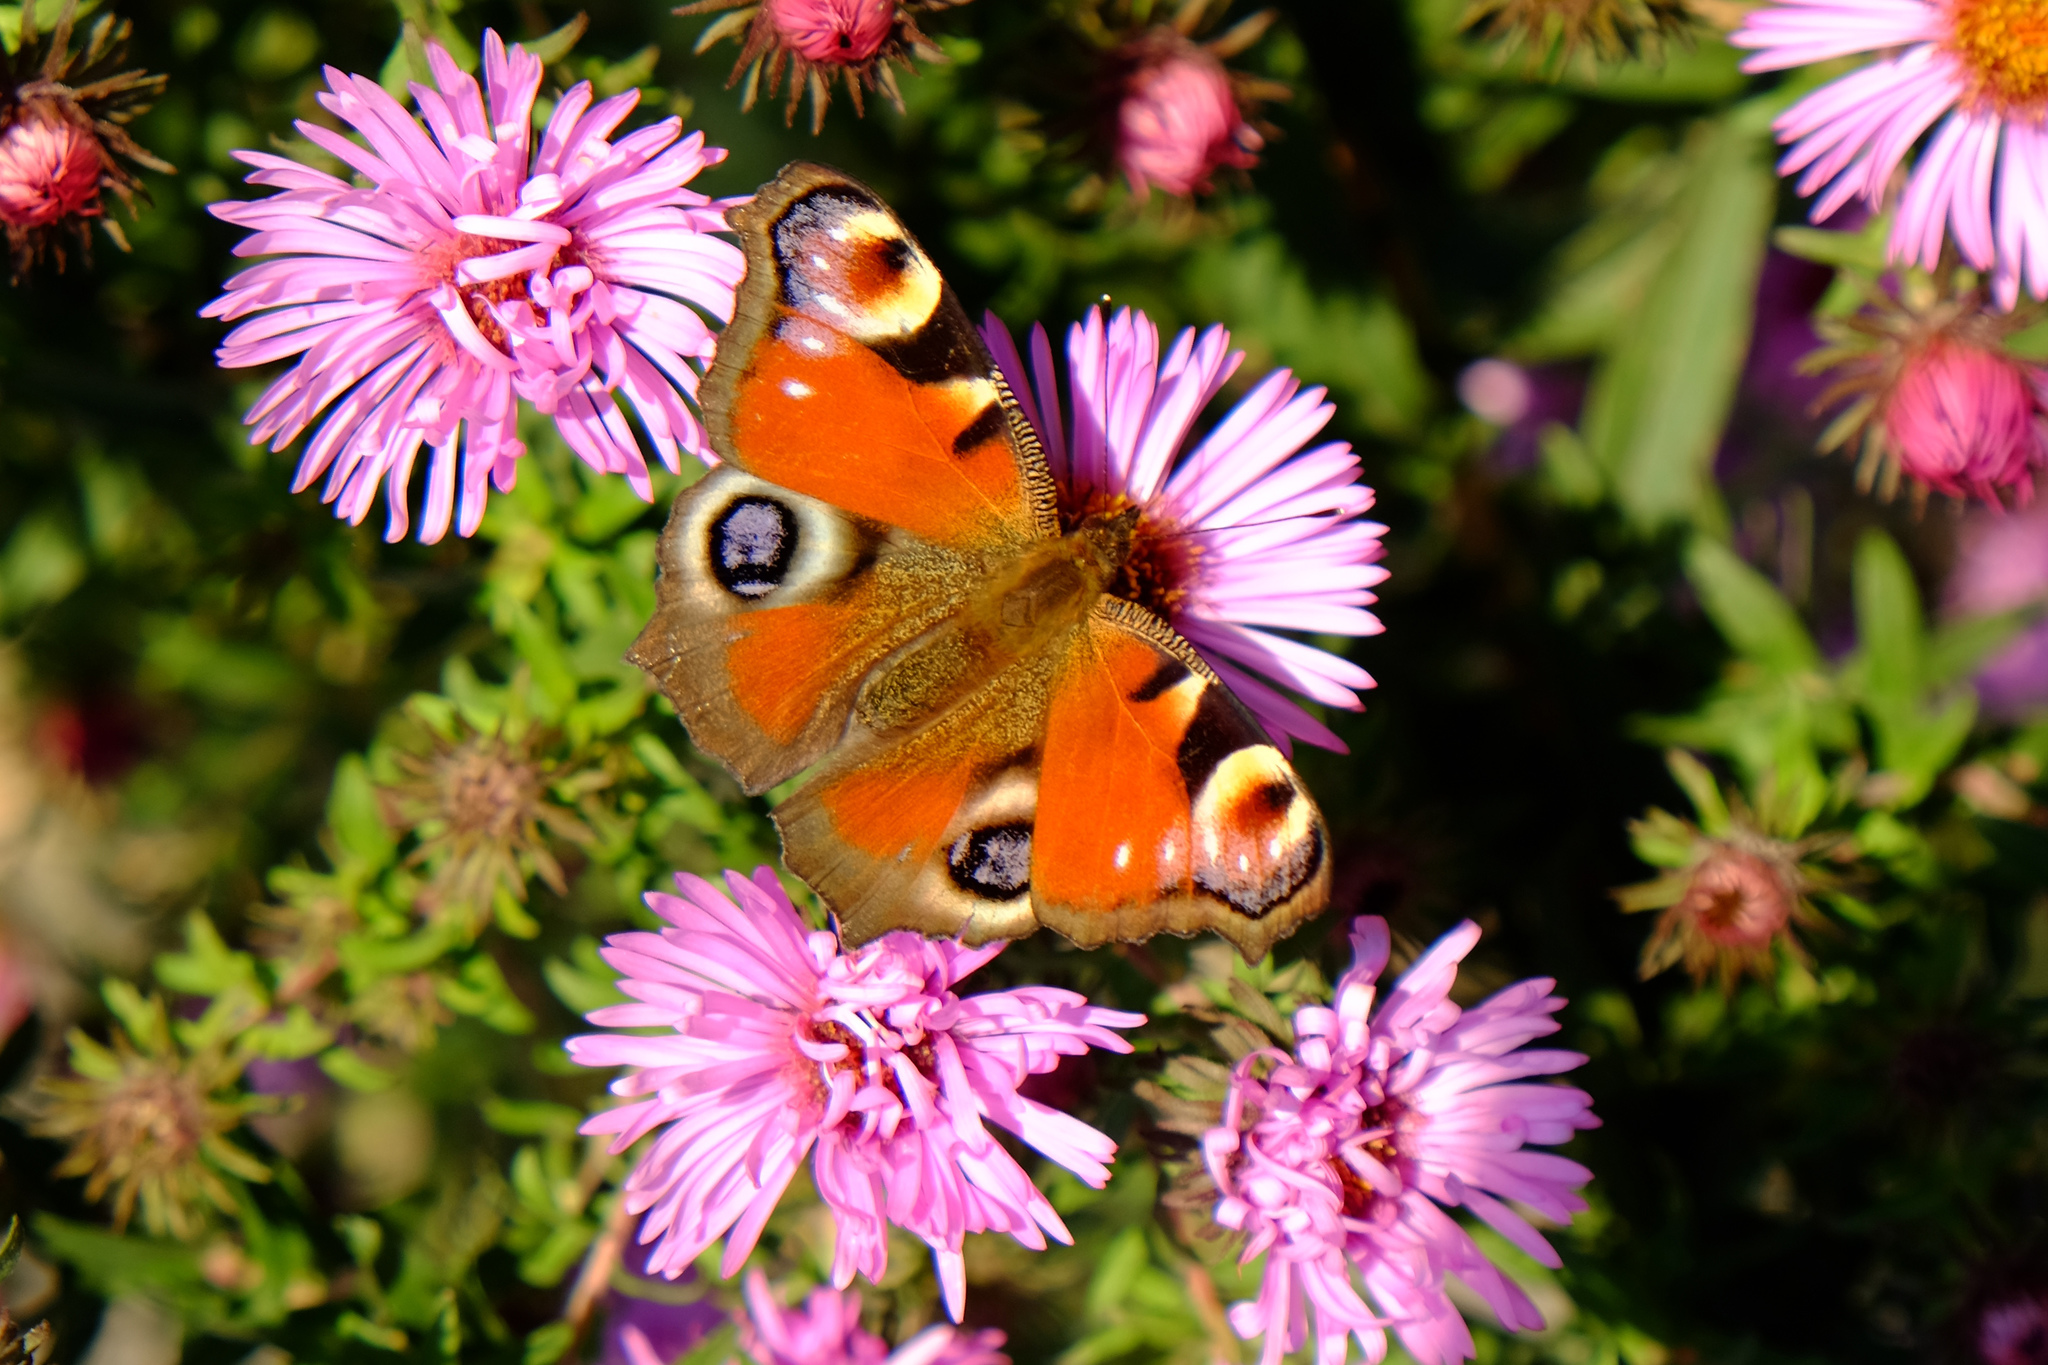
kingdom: Animalia
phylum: Arthropoda
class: Insecta
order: Lepidoptera
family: Nymphalidae
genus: Aglais
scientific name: Aglais io
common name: Peacock
